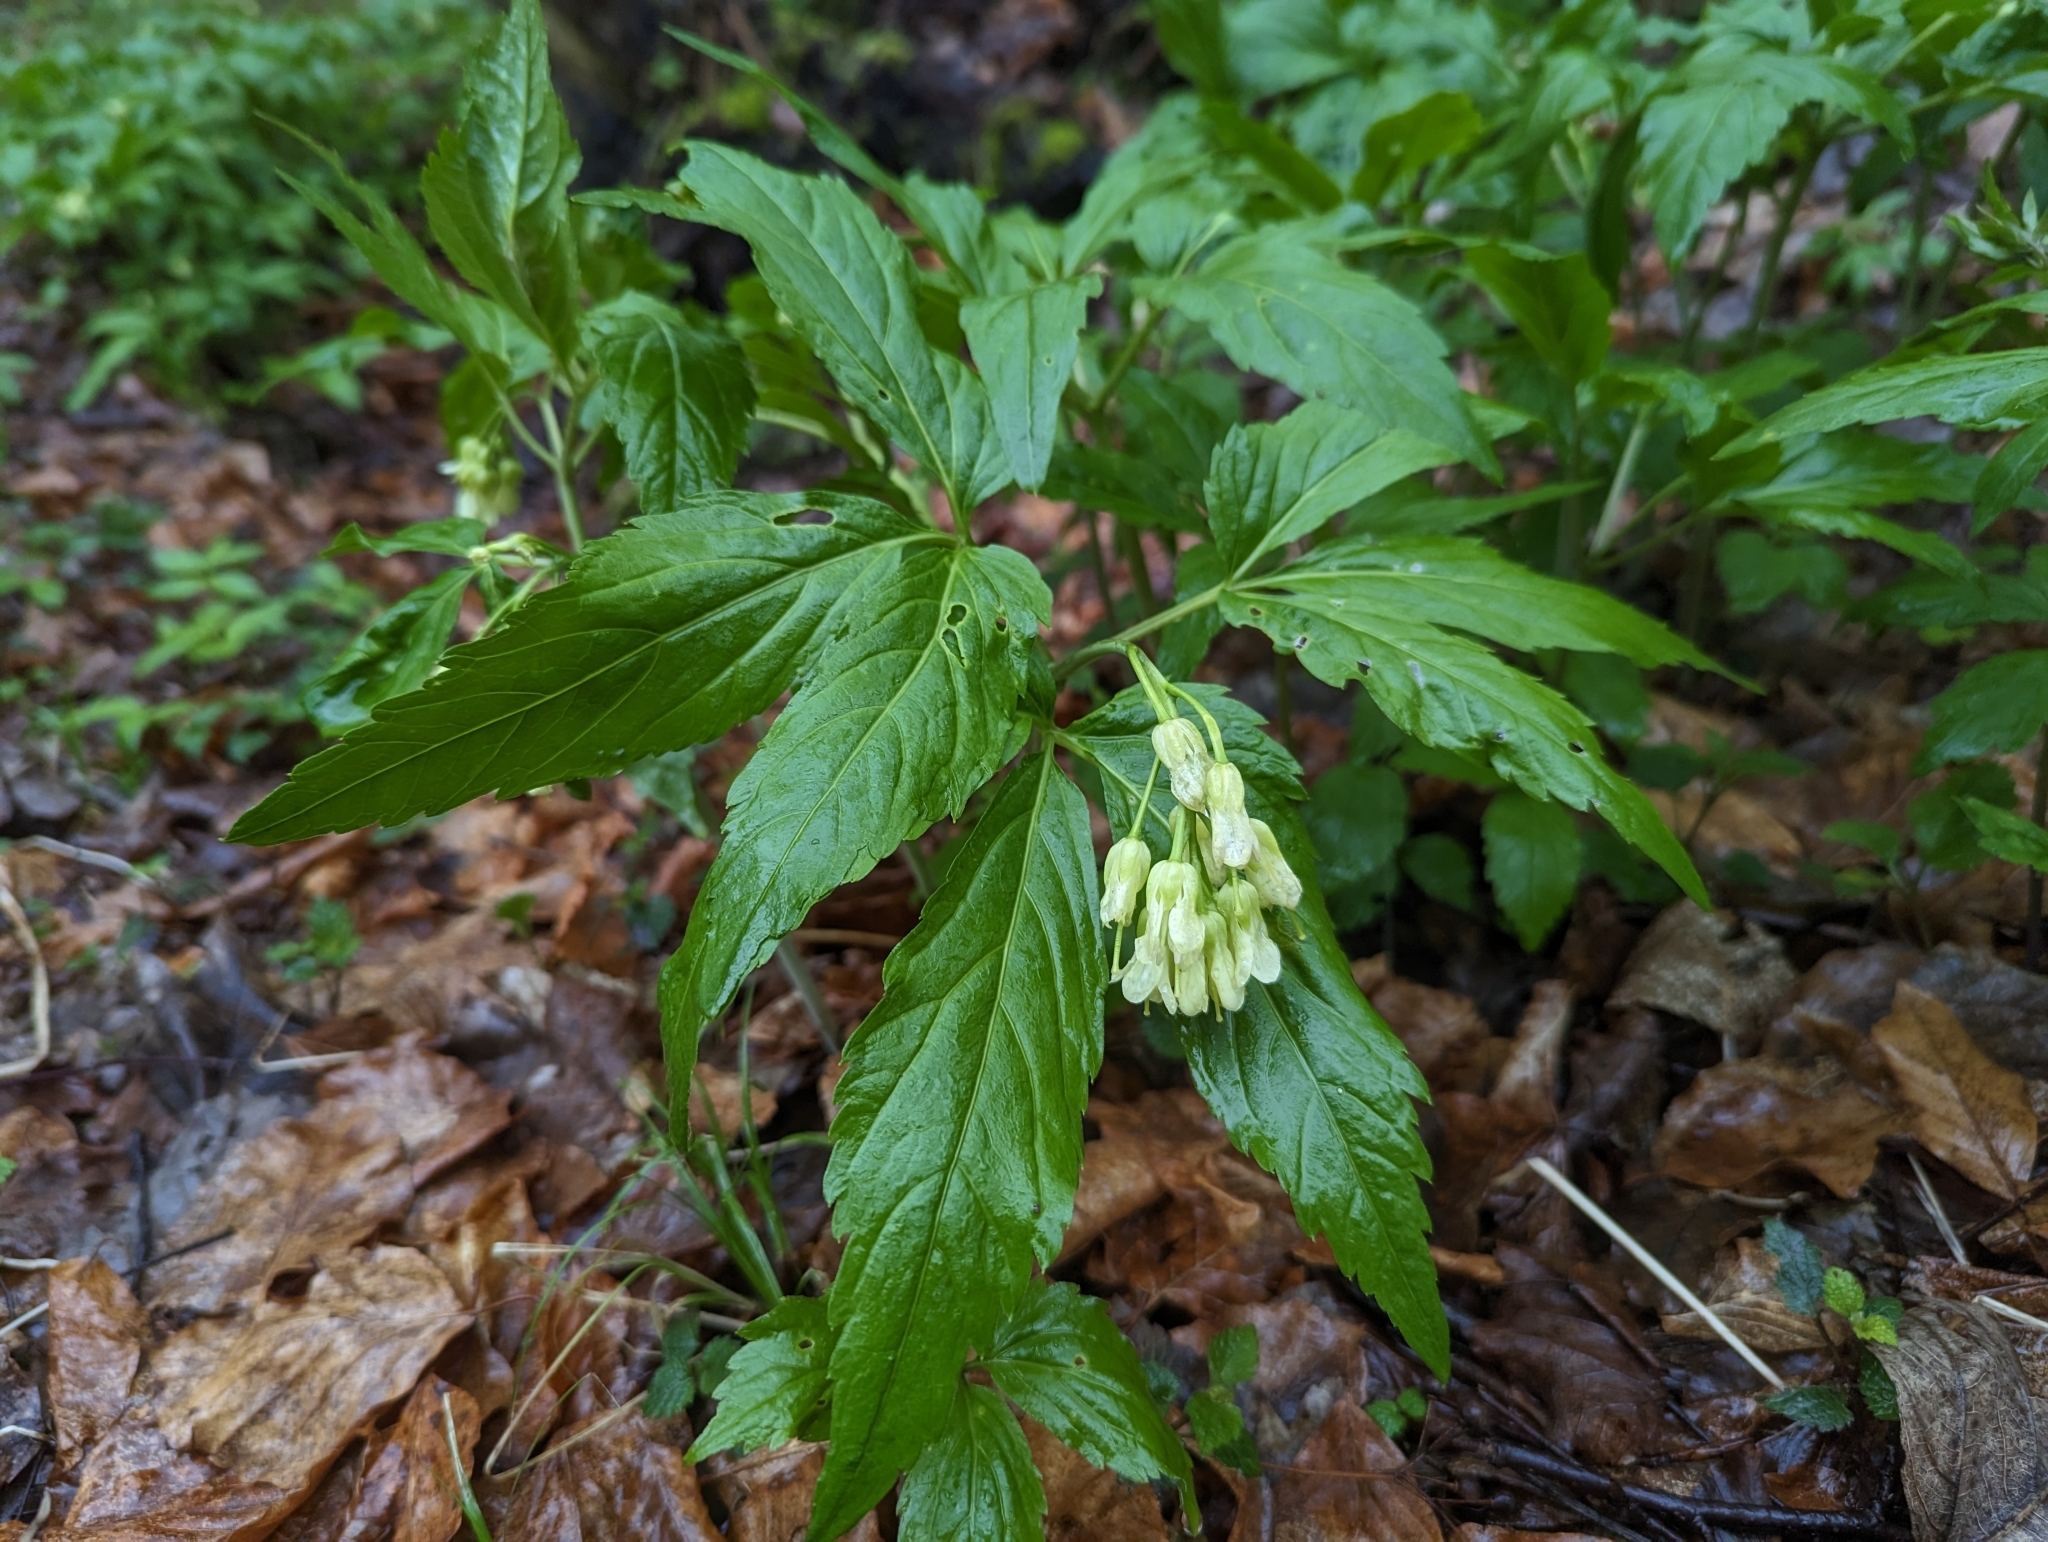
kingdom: Plantae
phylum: Tracheophyta
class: Magnoliopsida
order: Brassicales
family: Brassicaceae
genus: Cardamine
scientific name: Cardamine enneaphyllos
